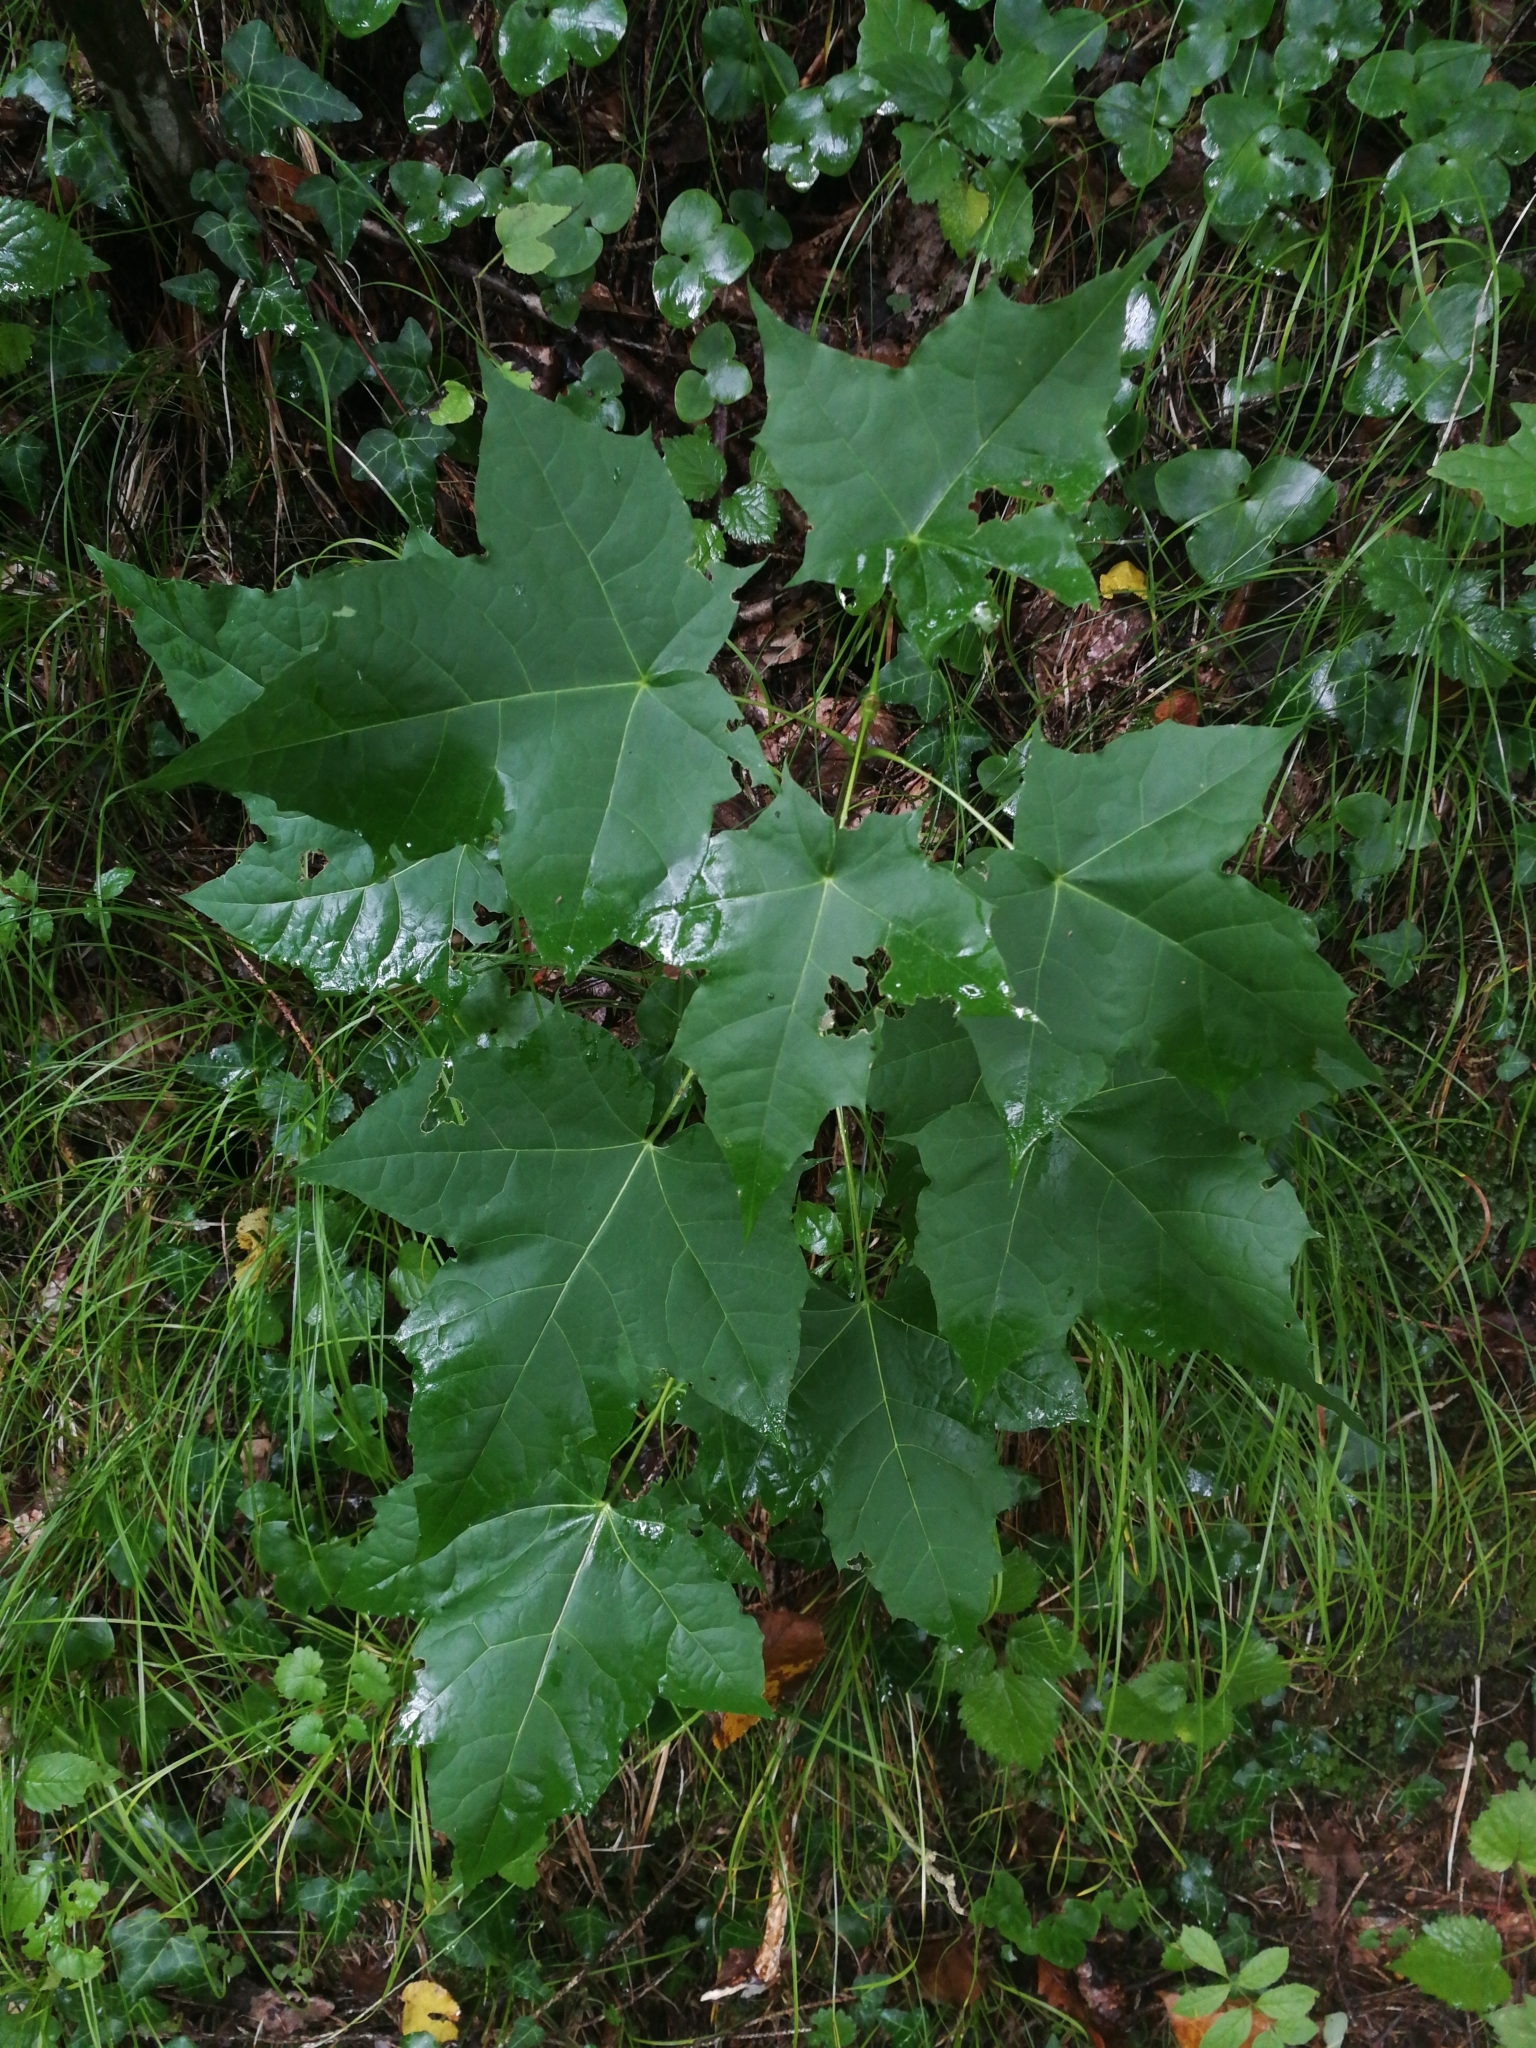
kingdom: Plantae
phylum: Tracheophyta
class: Magnoliopsida
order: Sapindales
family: Sapindaceae
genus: Acer
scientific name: Acer pseudoplatanus
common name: Sycamore
